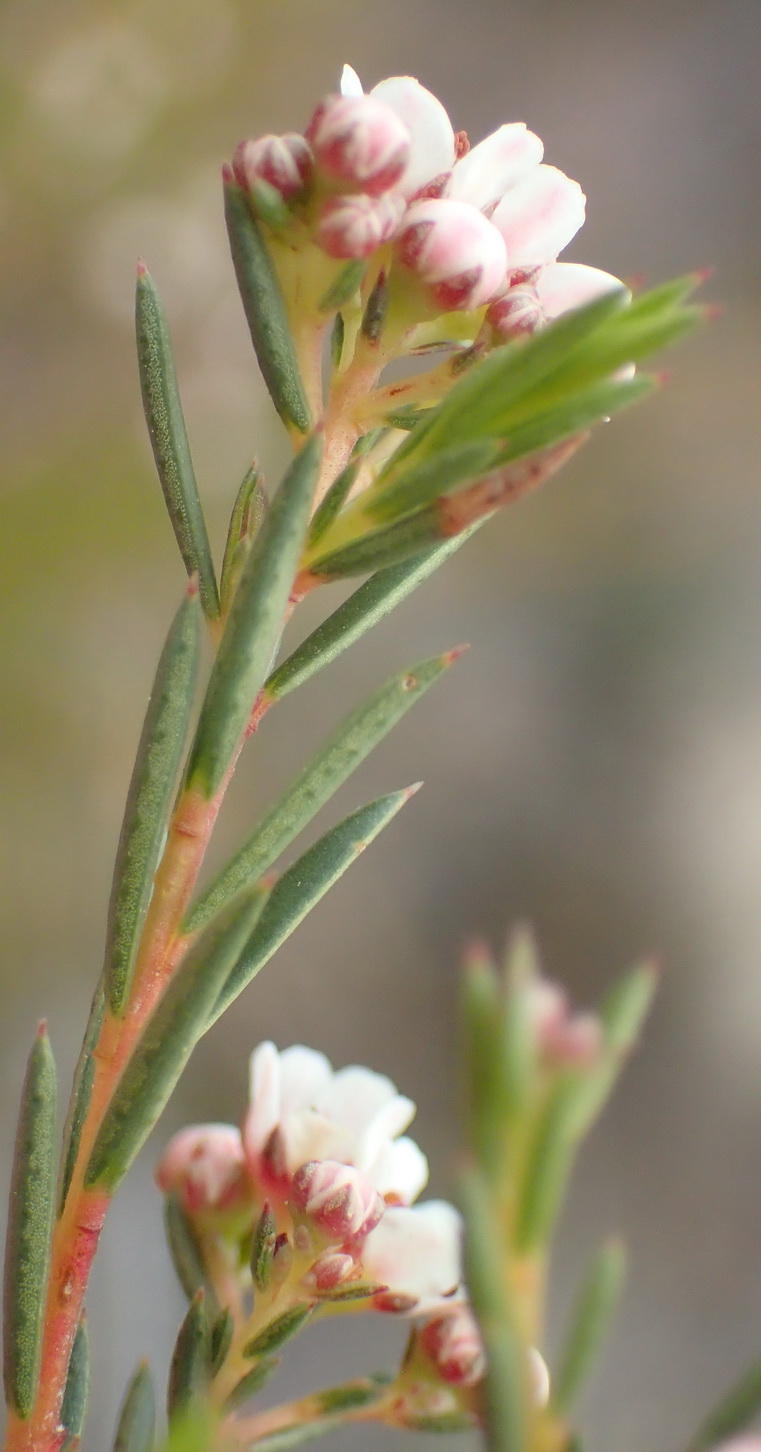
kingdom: Plantae
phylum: Tracheophyta
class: Magnoliopsida
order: Sapindales
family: Rutaceae
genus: Diosma
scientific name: Diosma hirsuta
